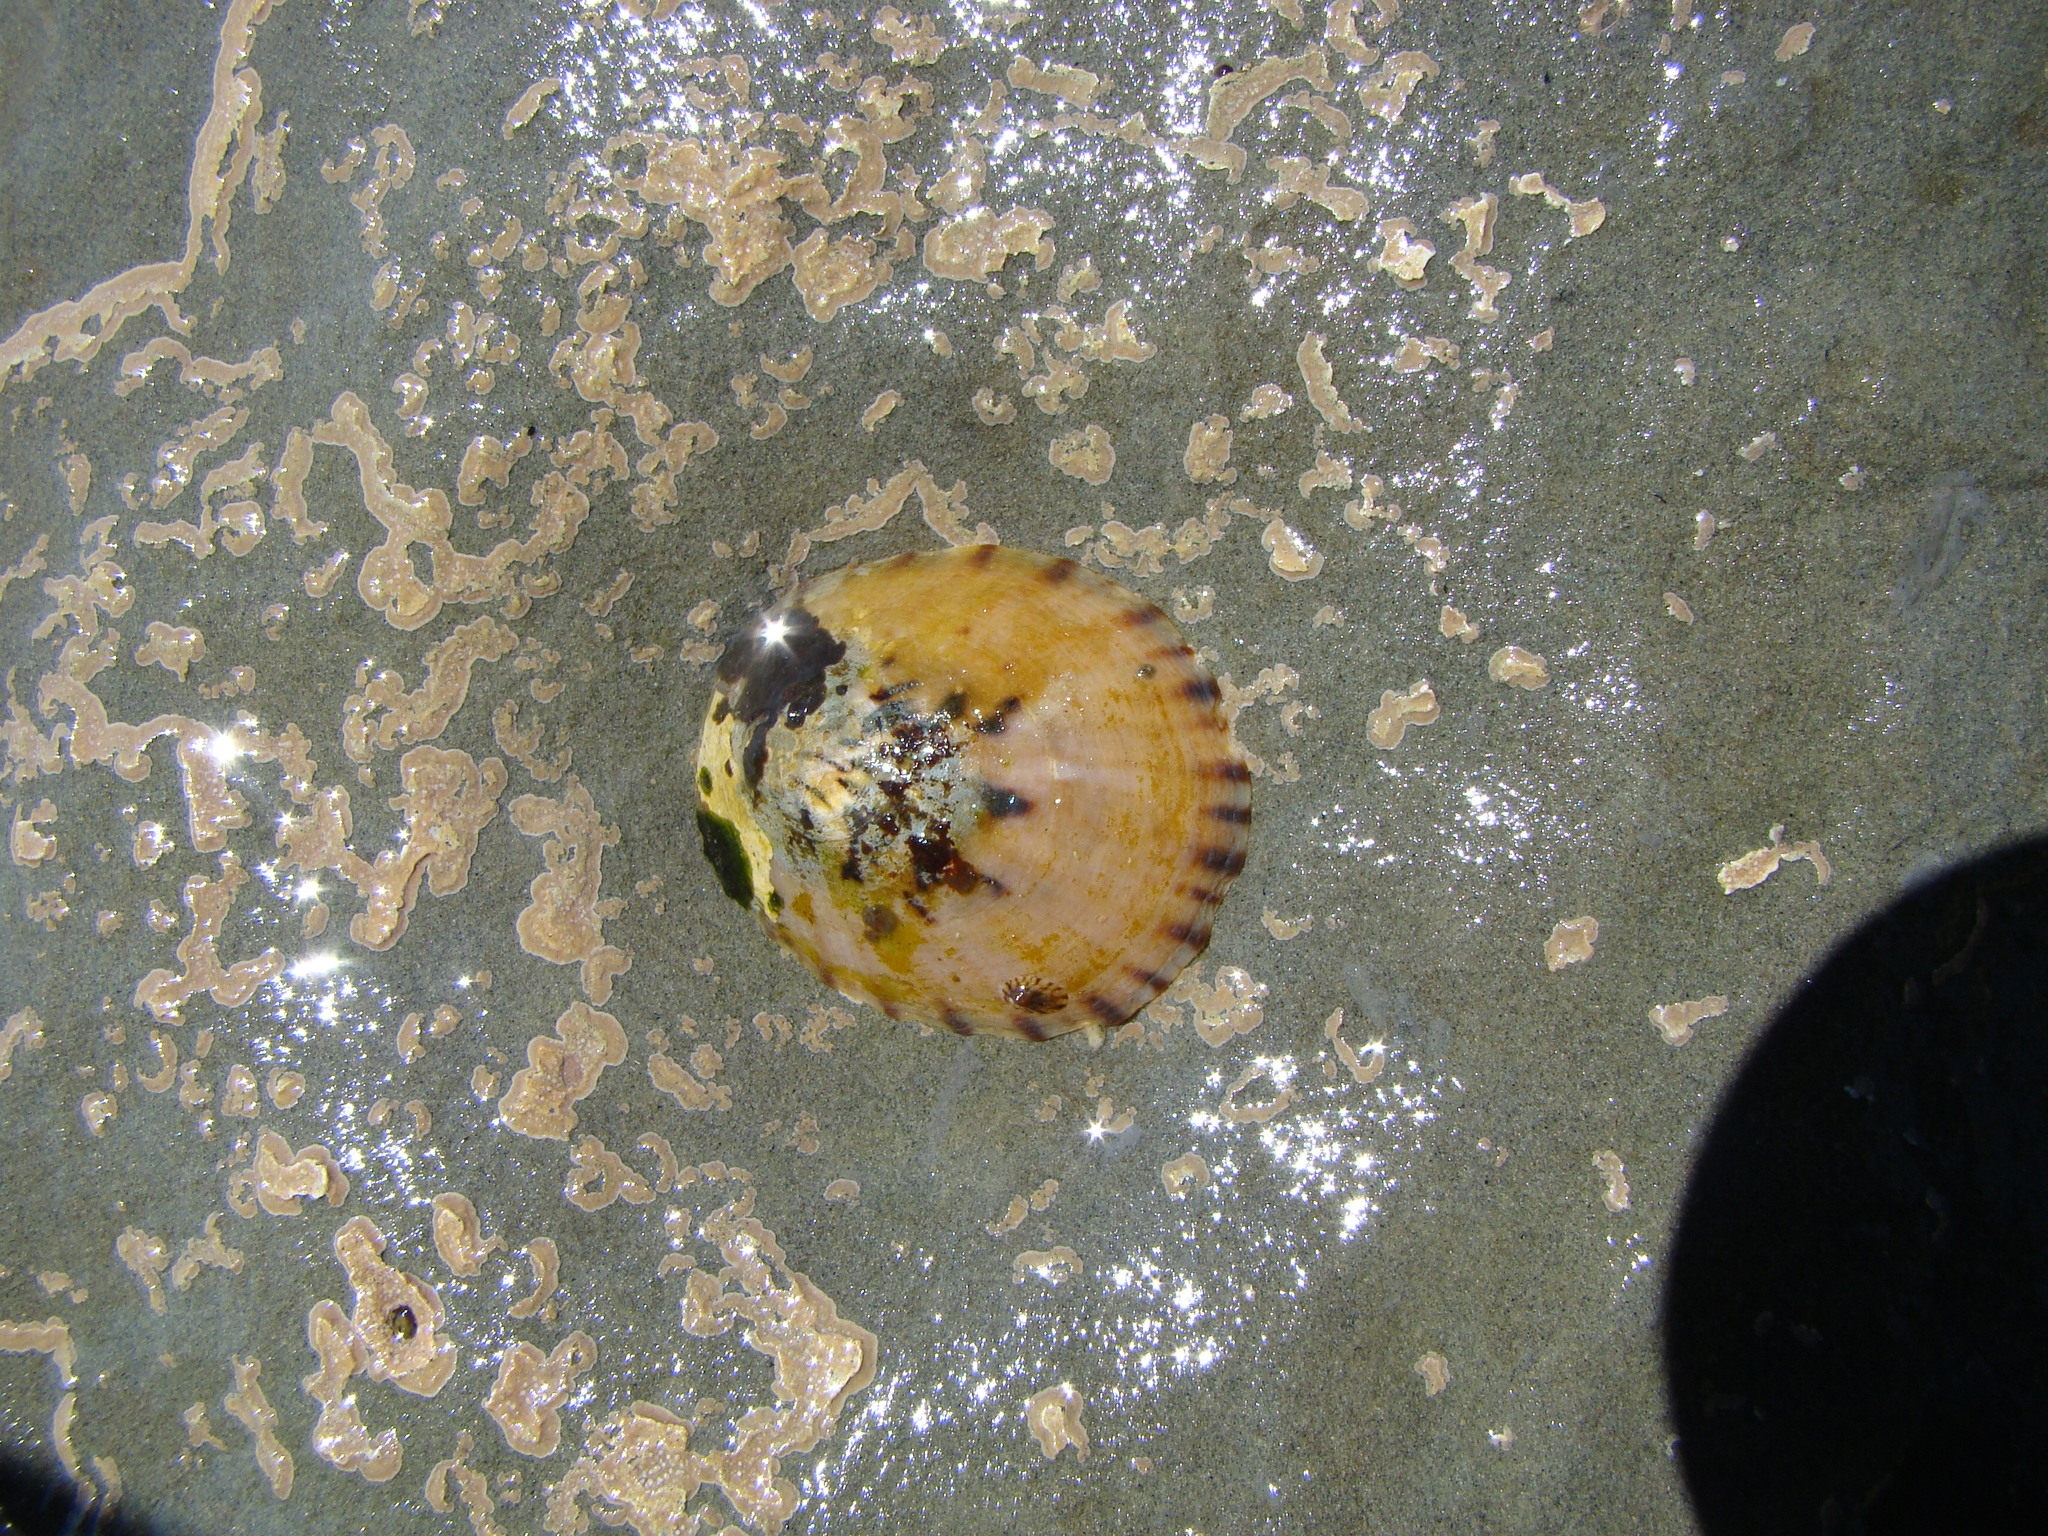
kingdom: Animalia
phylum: Mollusca
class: Gastropoda
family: Nacellidae
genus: Cellana
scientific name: Cellana radians
